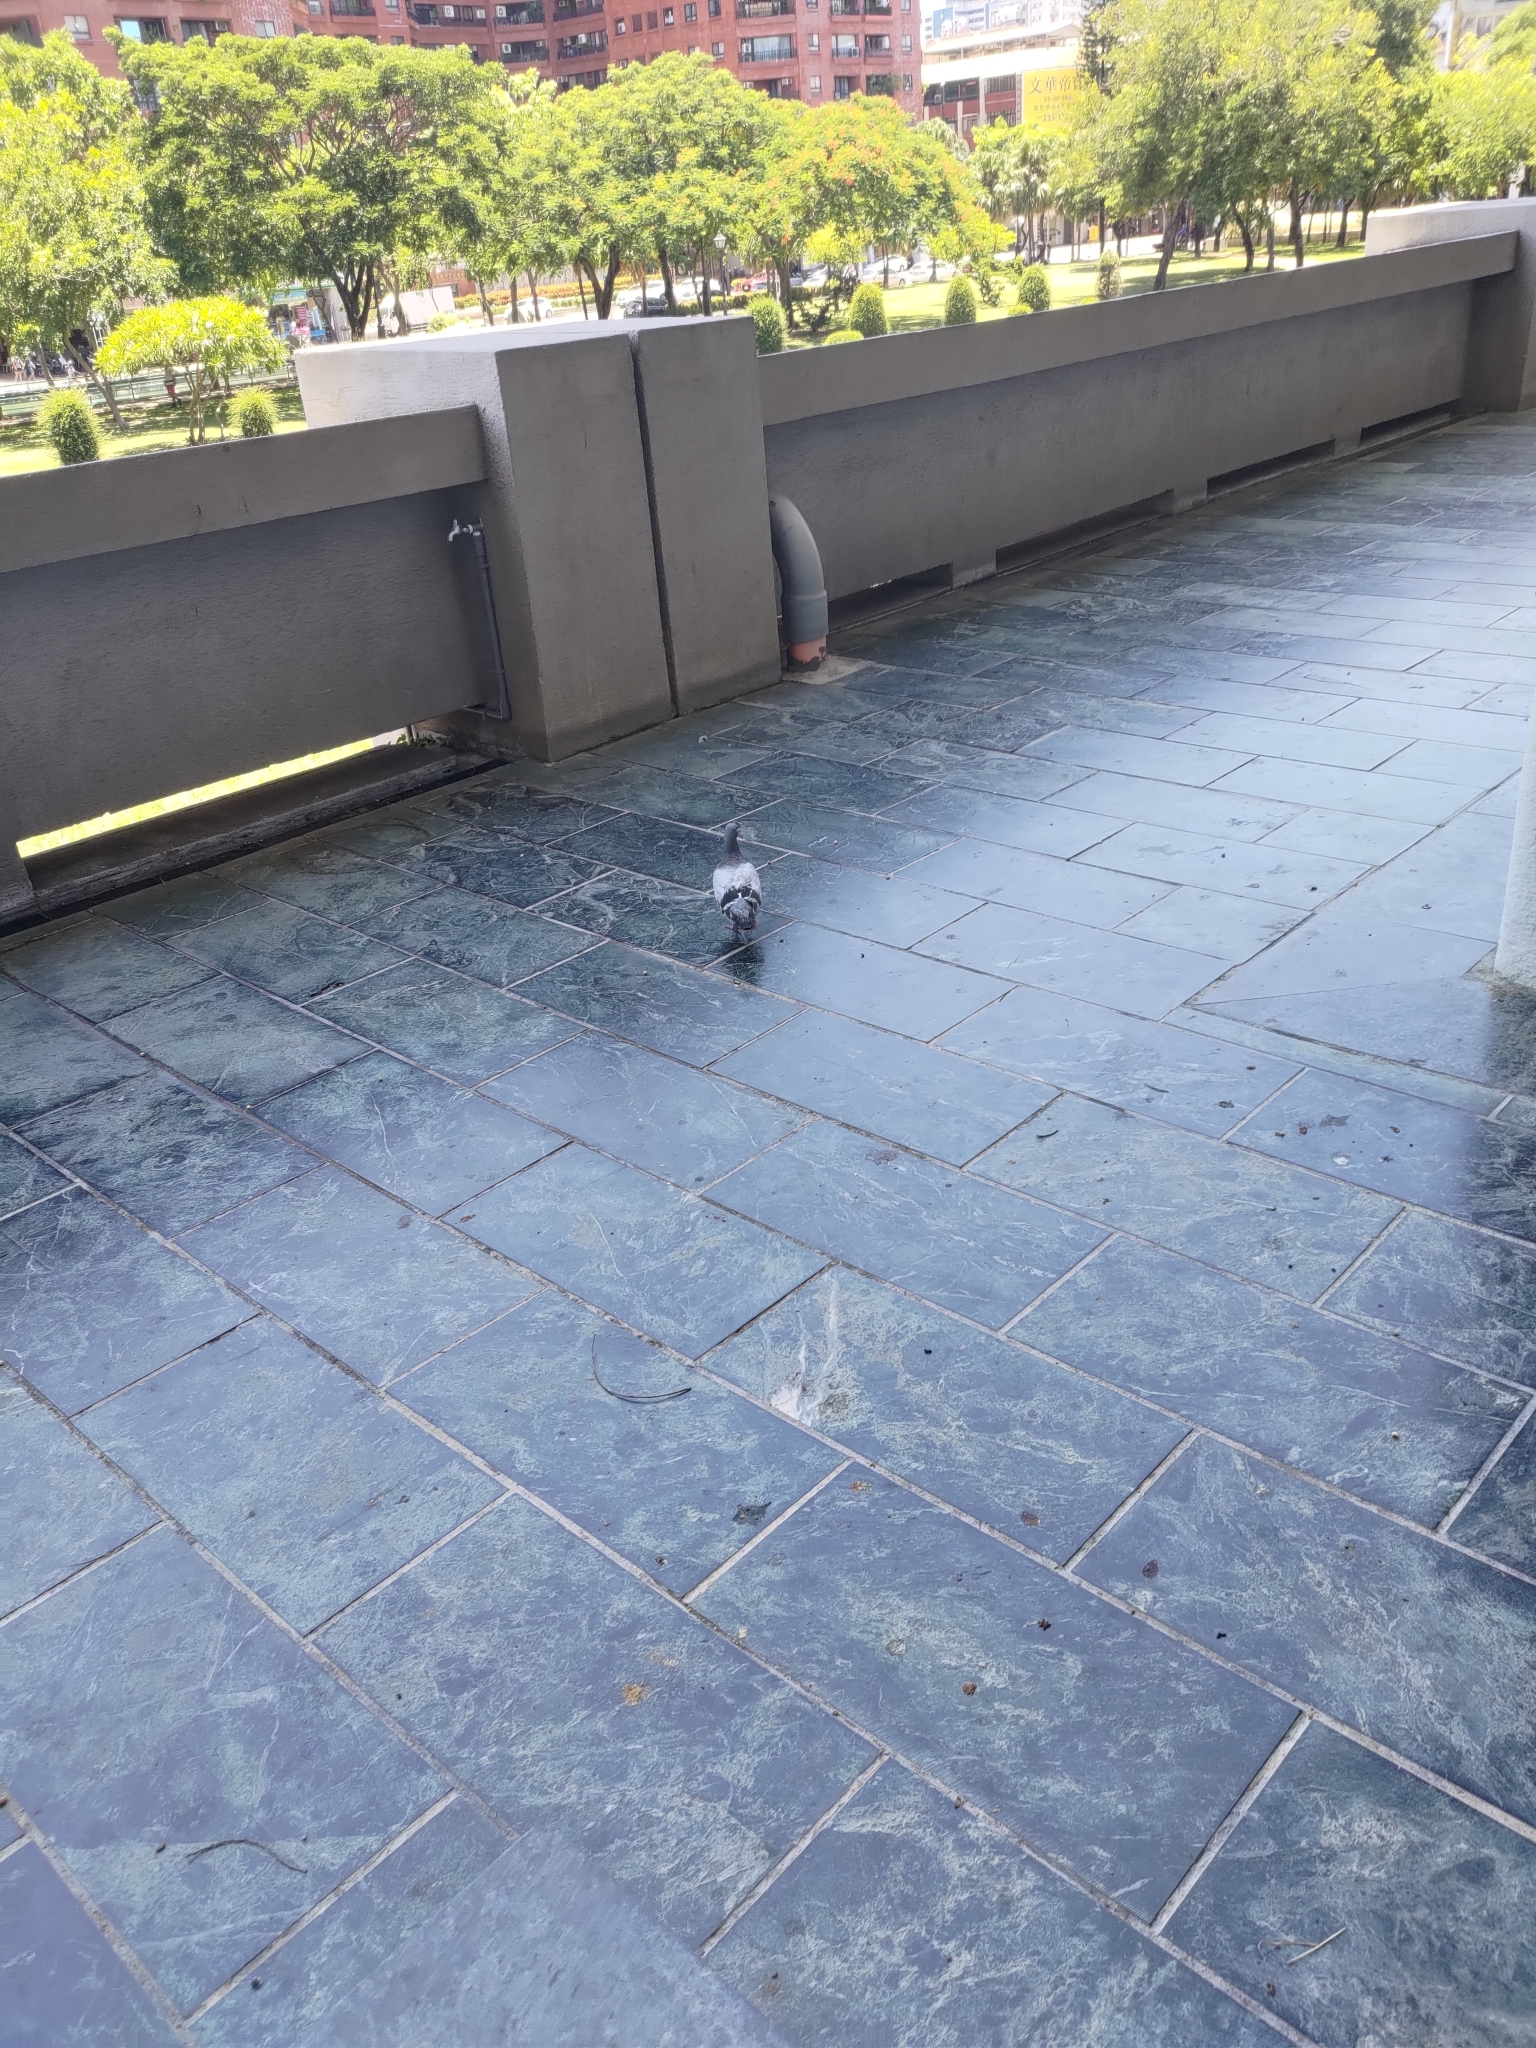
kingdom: Animalia
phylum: Chordata
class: Aves
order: Columbiformes
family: Columbidae
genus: Columba
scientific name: Columba livia
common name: Rock pigeon
